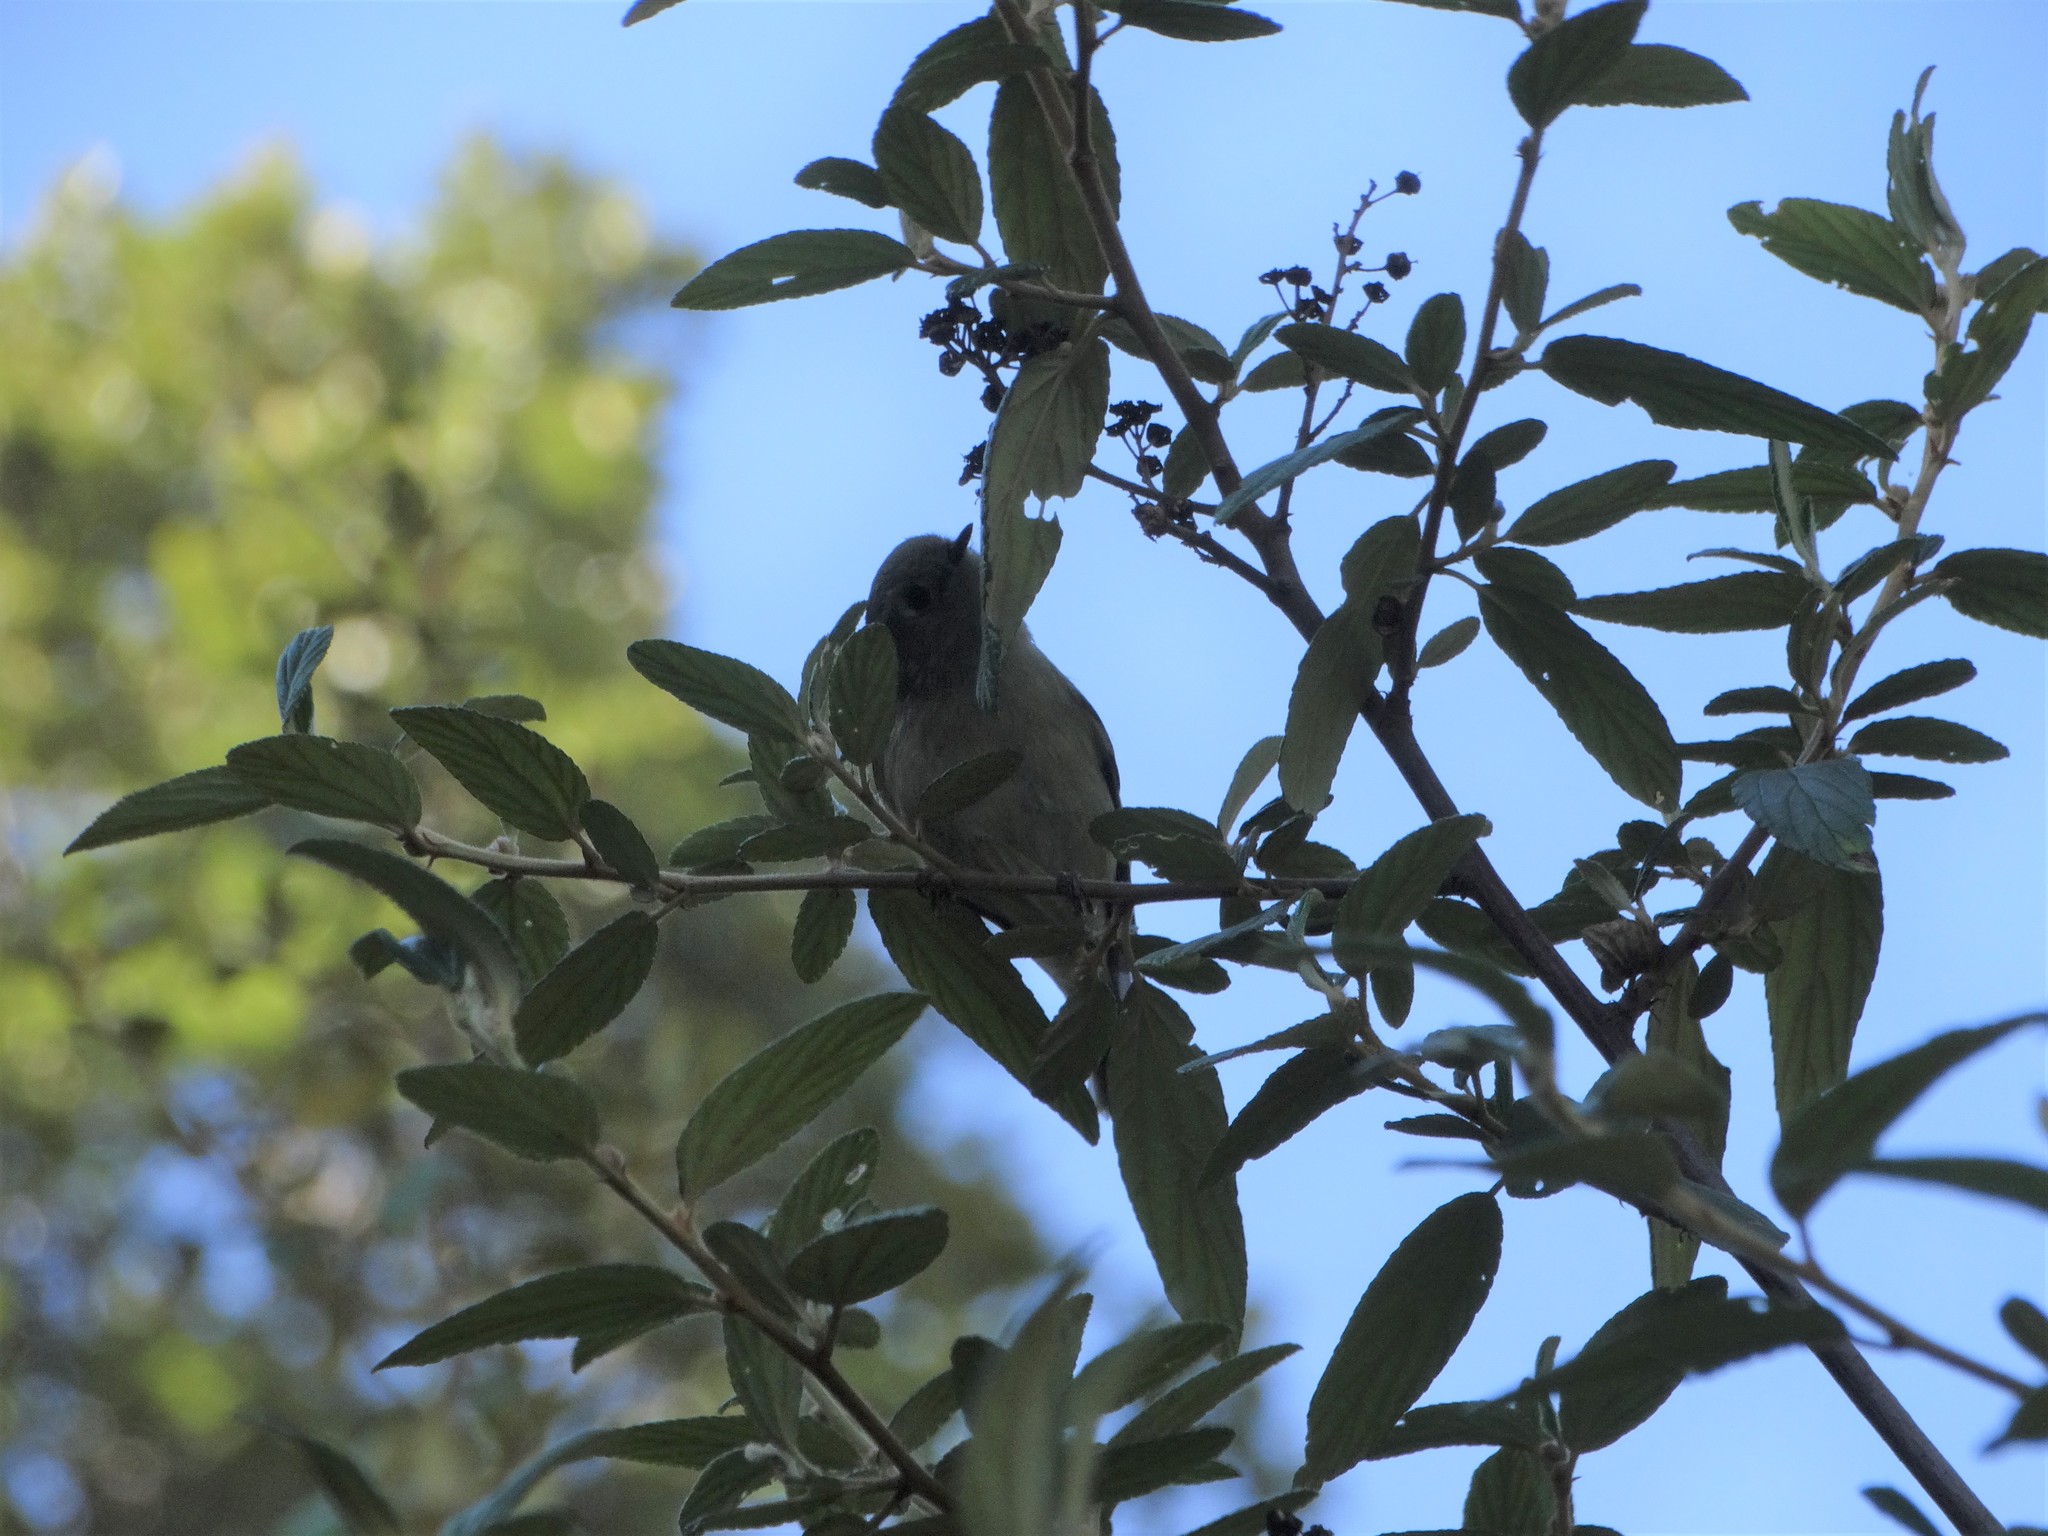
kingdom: Animalia
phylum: Chordata
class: Aves
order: Passeriformes
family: Regulidae
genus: Regulus
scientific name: Regulus calendula
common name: Ruby-crowned kinglet
